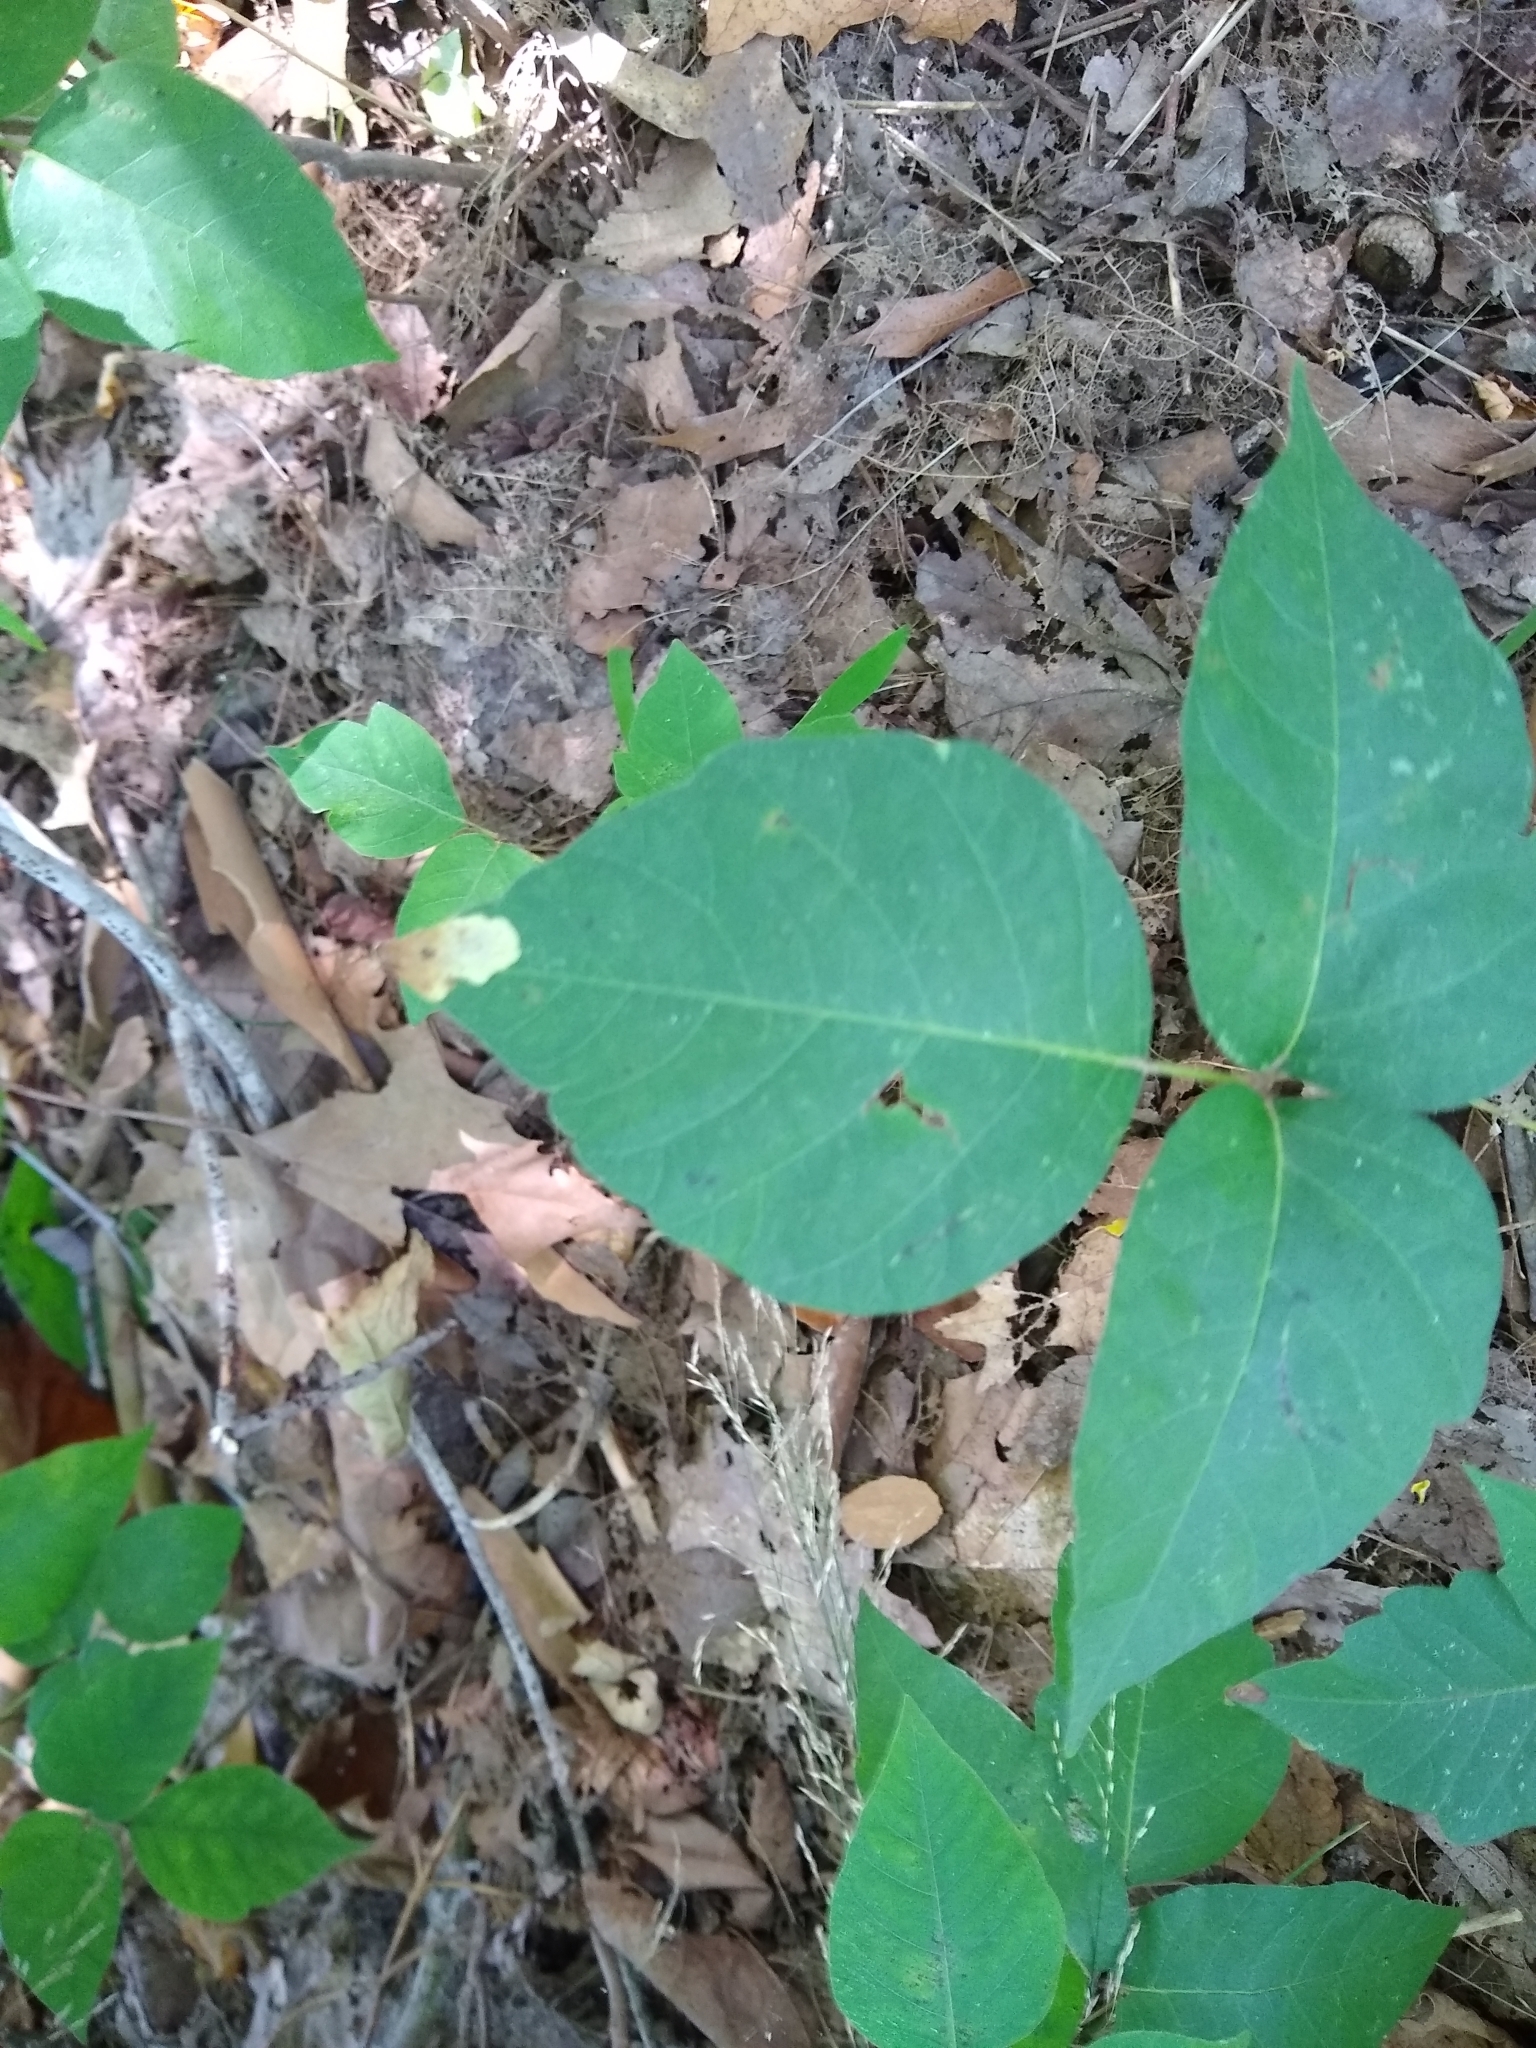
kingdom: Animalia
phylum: Arthropoda
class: Insecta
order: Lepidoptera
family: Gracillariidae
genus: Cameraria
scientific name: Cameraria guttifinitella
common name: Poison ivy leaf-miner moth
